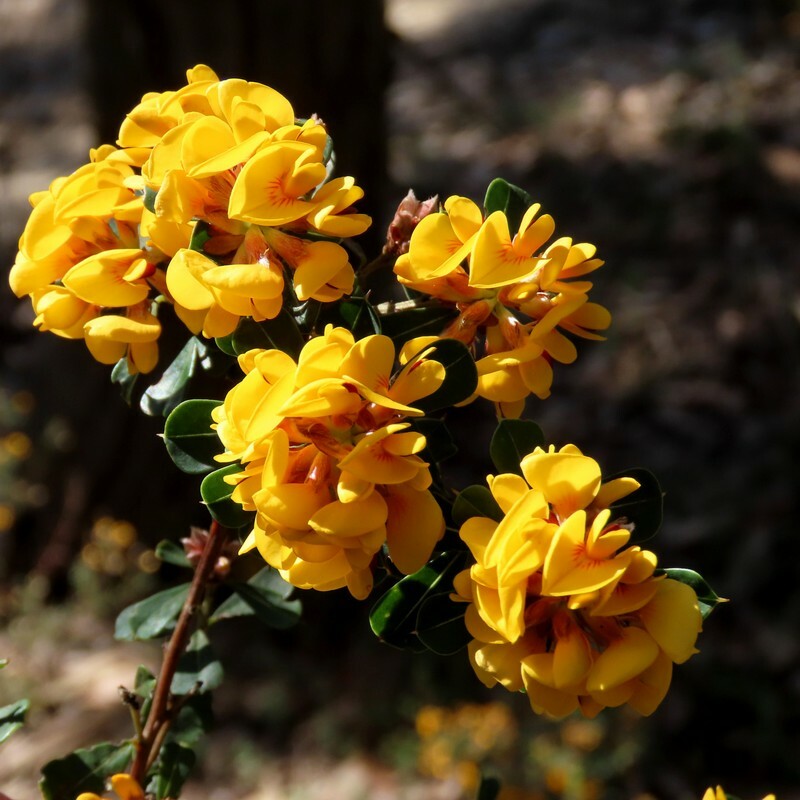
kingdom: Plantae
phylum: Tracheophyta
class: Magnoliopsida
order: Fabales
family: Fabaceae
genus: Pultenaea
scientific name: Pultenaea daphnoides
